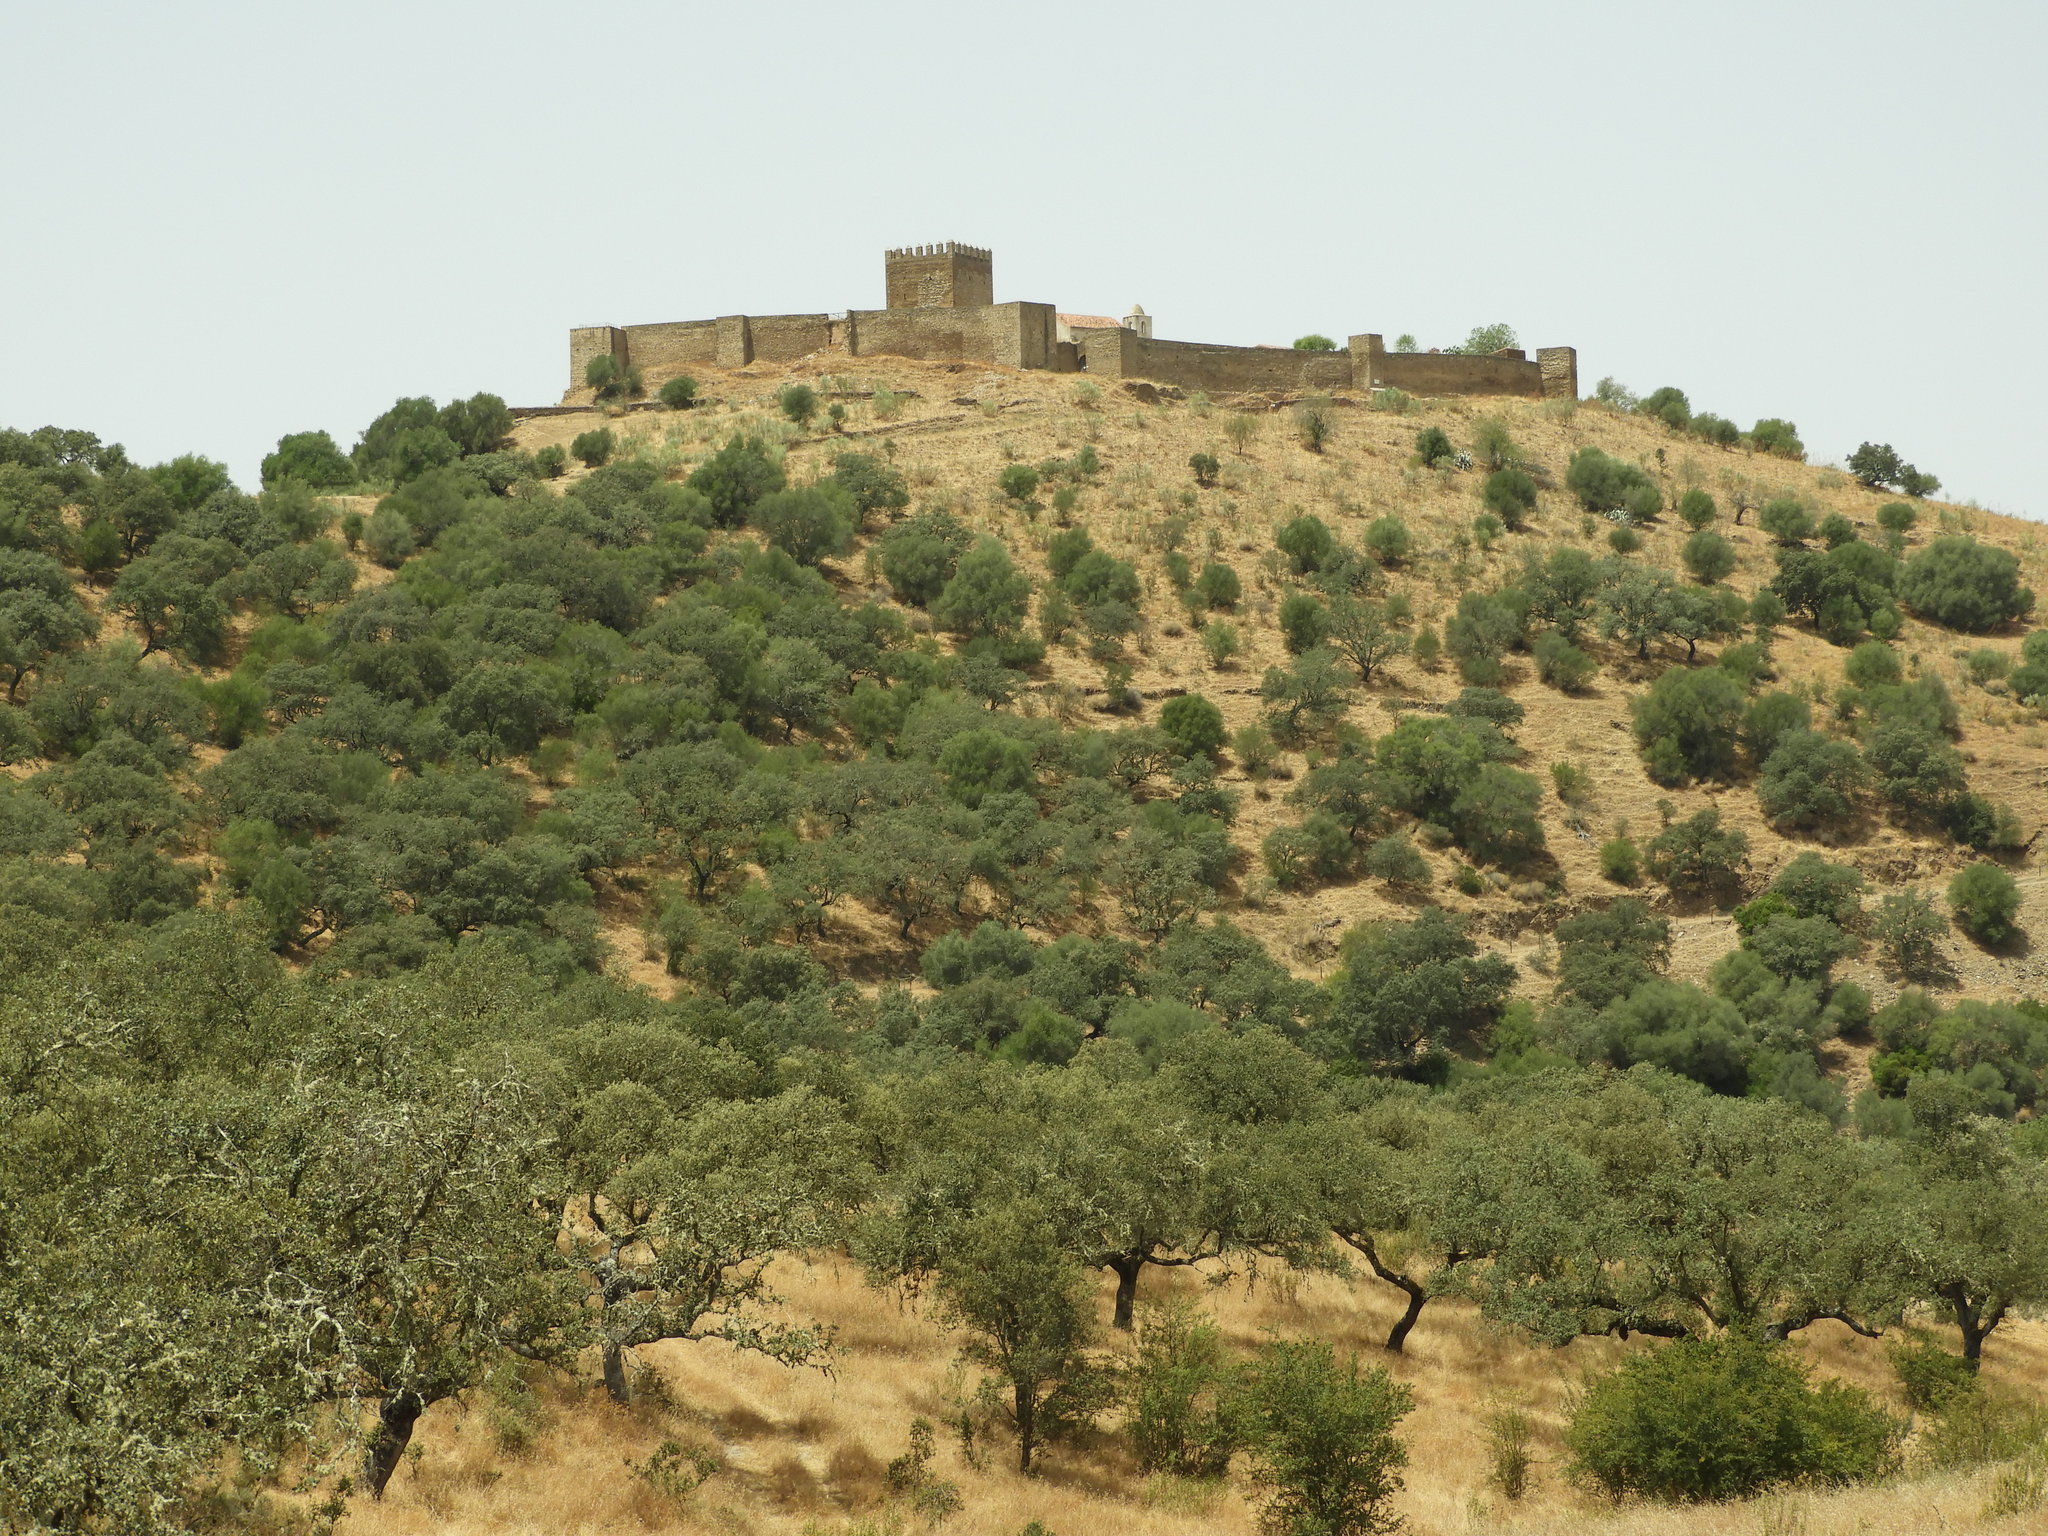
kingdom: Plantae
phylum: Tracheophyta
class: Magnoliopsida
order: Fagales
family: Fagaceae
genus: Quercus
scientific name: Quercus rotundifolia
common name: Holm oak
